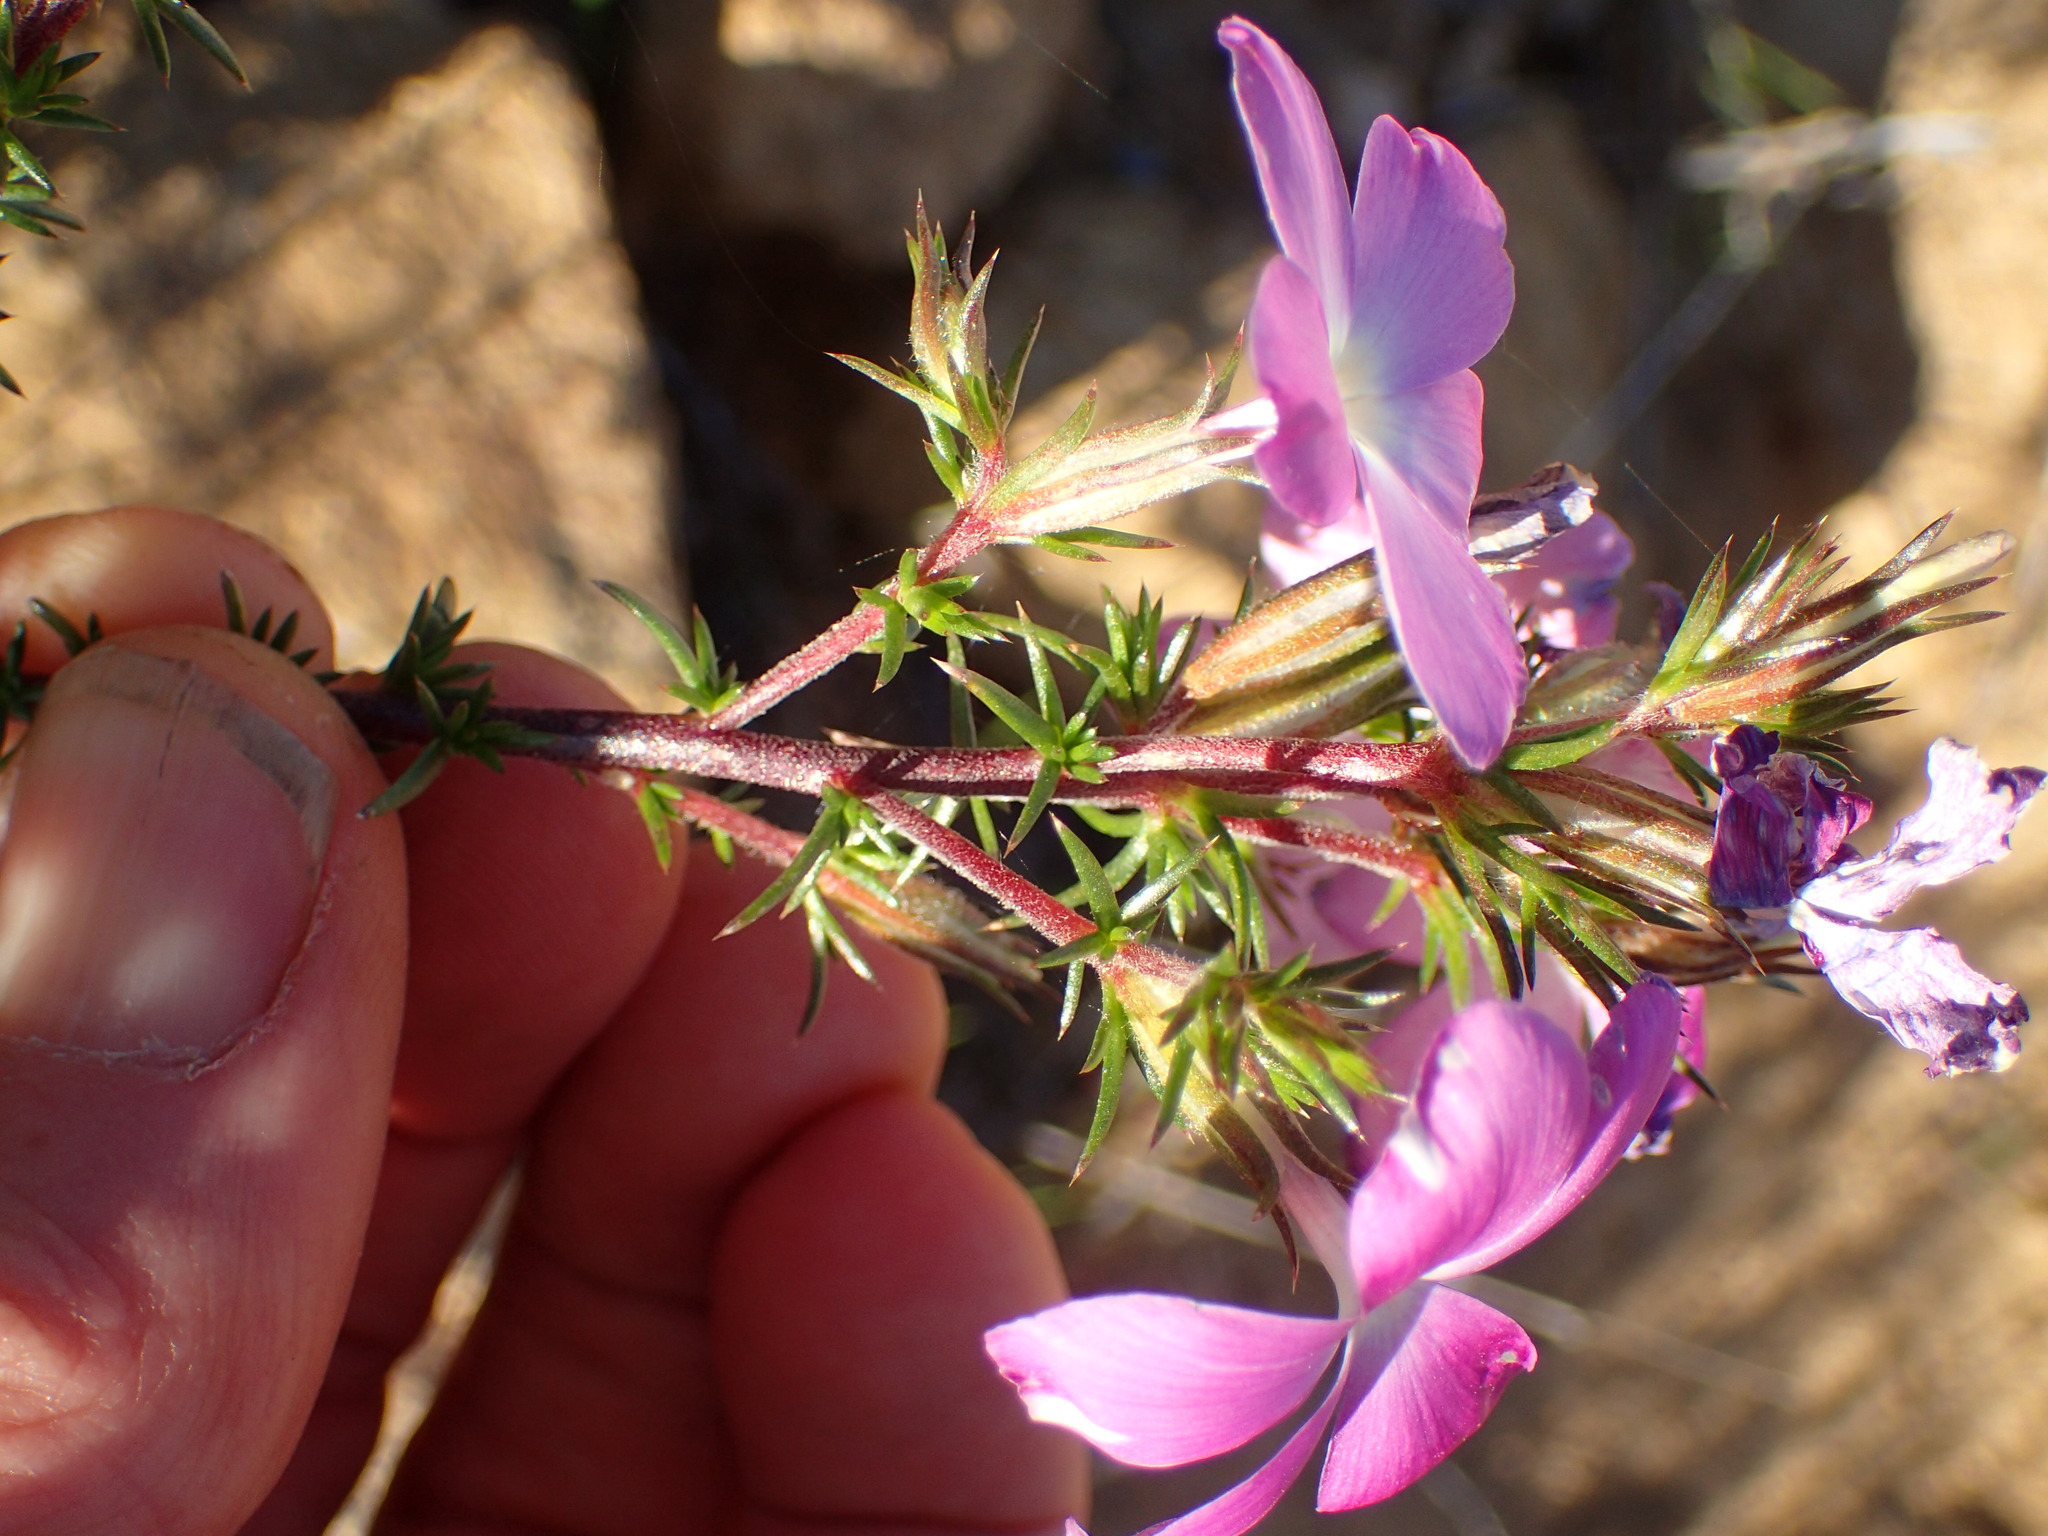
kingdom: Plantae
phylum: Tracheophyta
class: Magnoliopsida
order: Ericales
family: Polemoniaceae
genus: Linanthus
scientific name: Linanthus californicus
